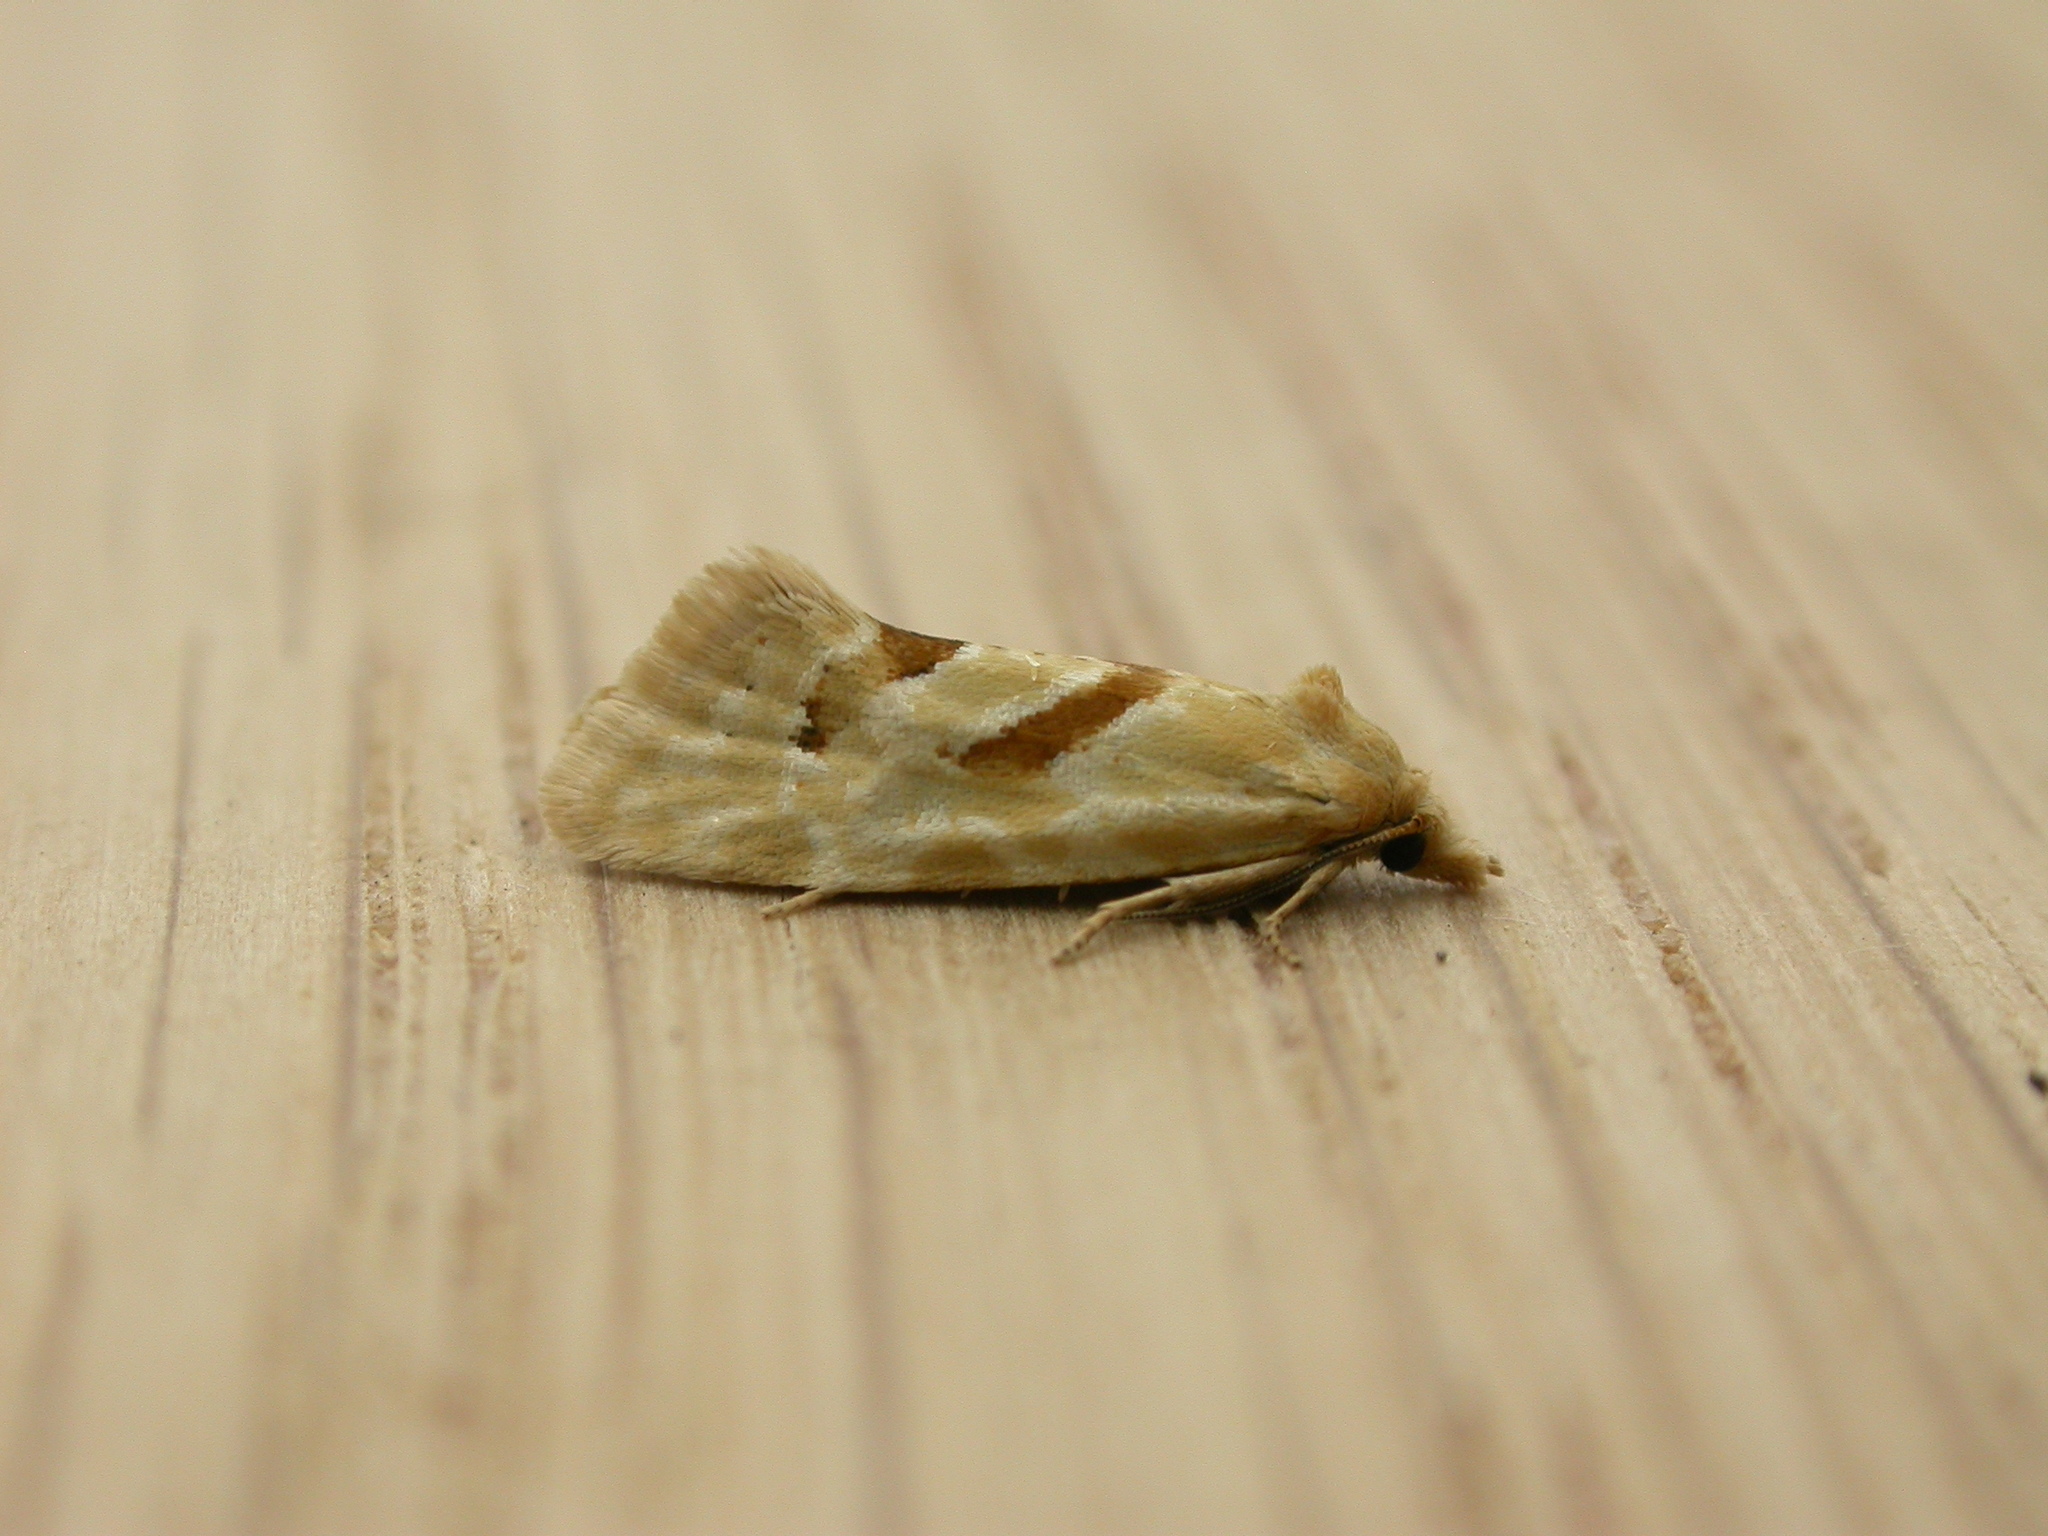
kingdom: Animalia
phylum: Arthropoda
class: Insecta
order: Lepidoptera
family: Tortricidae
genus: Aethes
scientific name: Aethes smeathmanniana
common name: Yarrow conch
